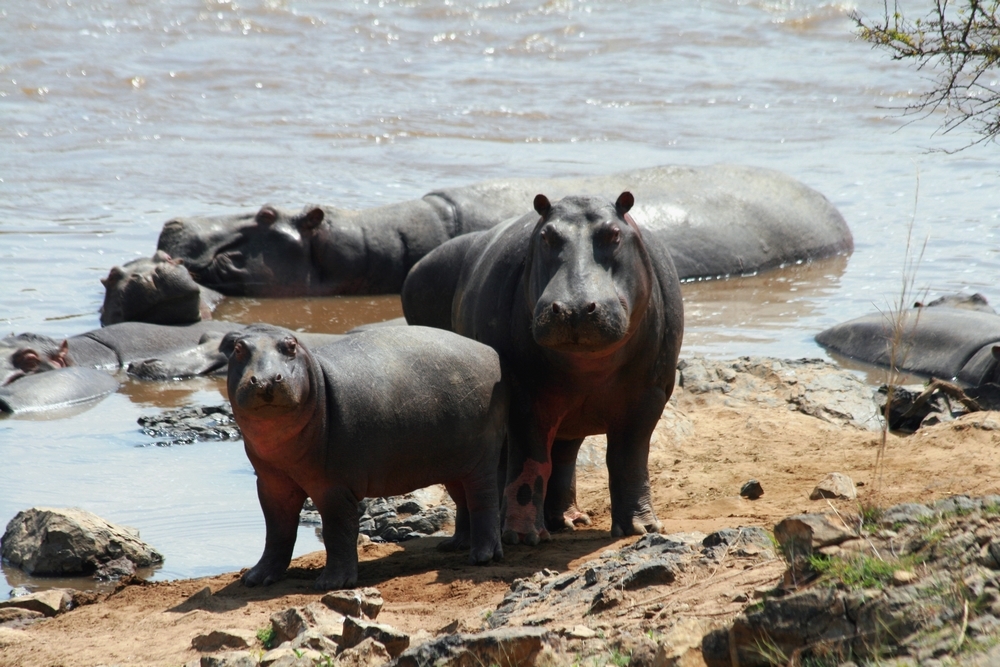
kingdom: Animalia
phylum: Chordata
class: Mammalia
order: Artiodactyla
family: Hippopotamidae
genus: Hippopotamus
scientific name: Hippopotamus amphibius
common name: Common hippopotamus
